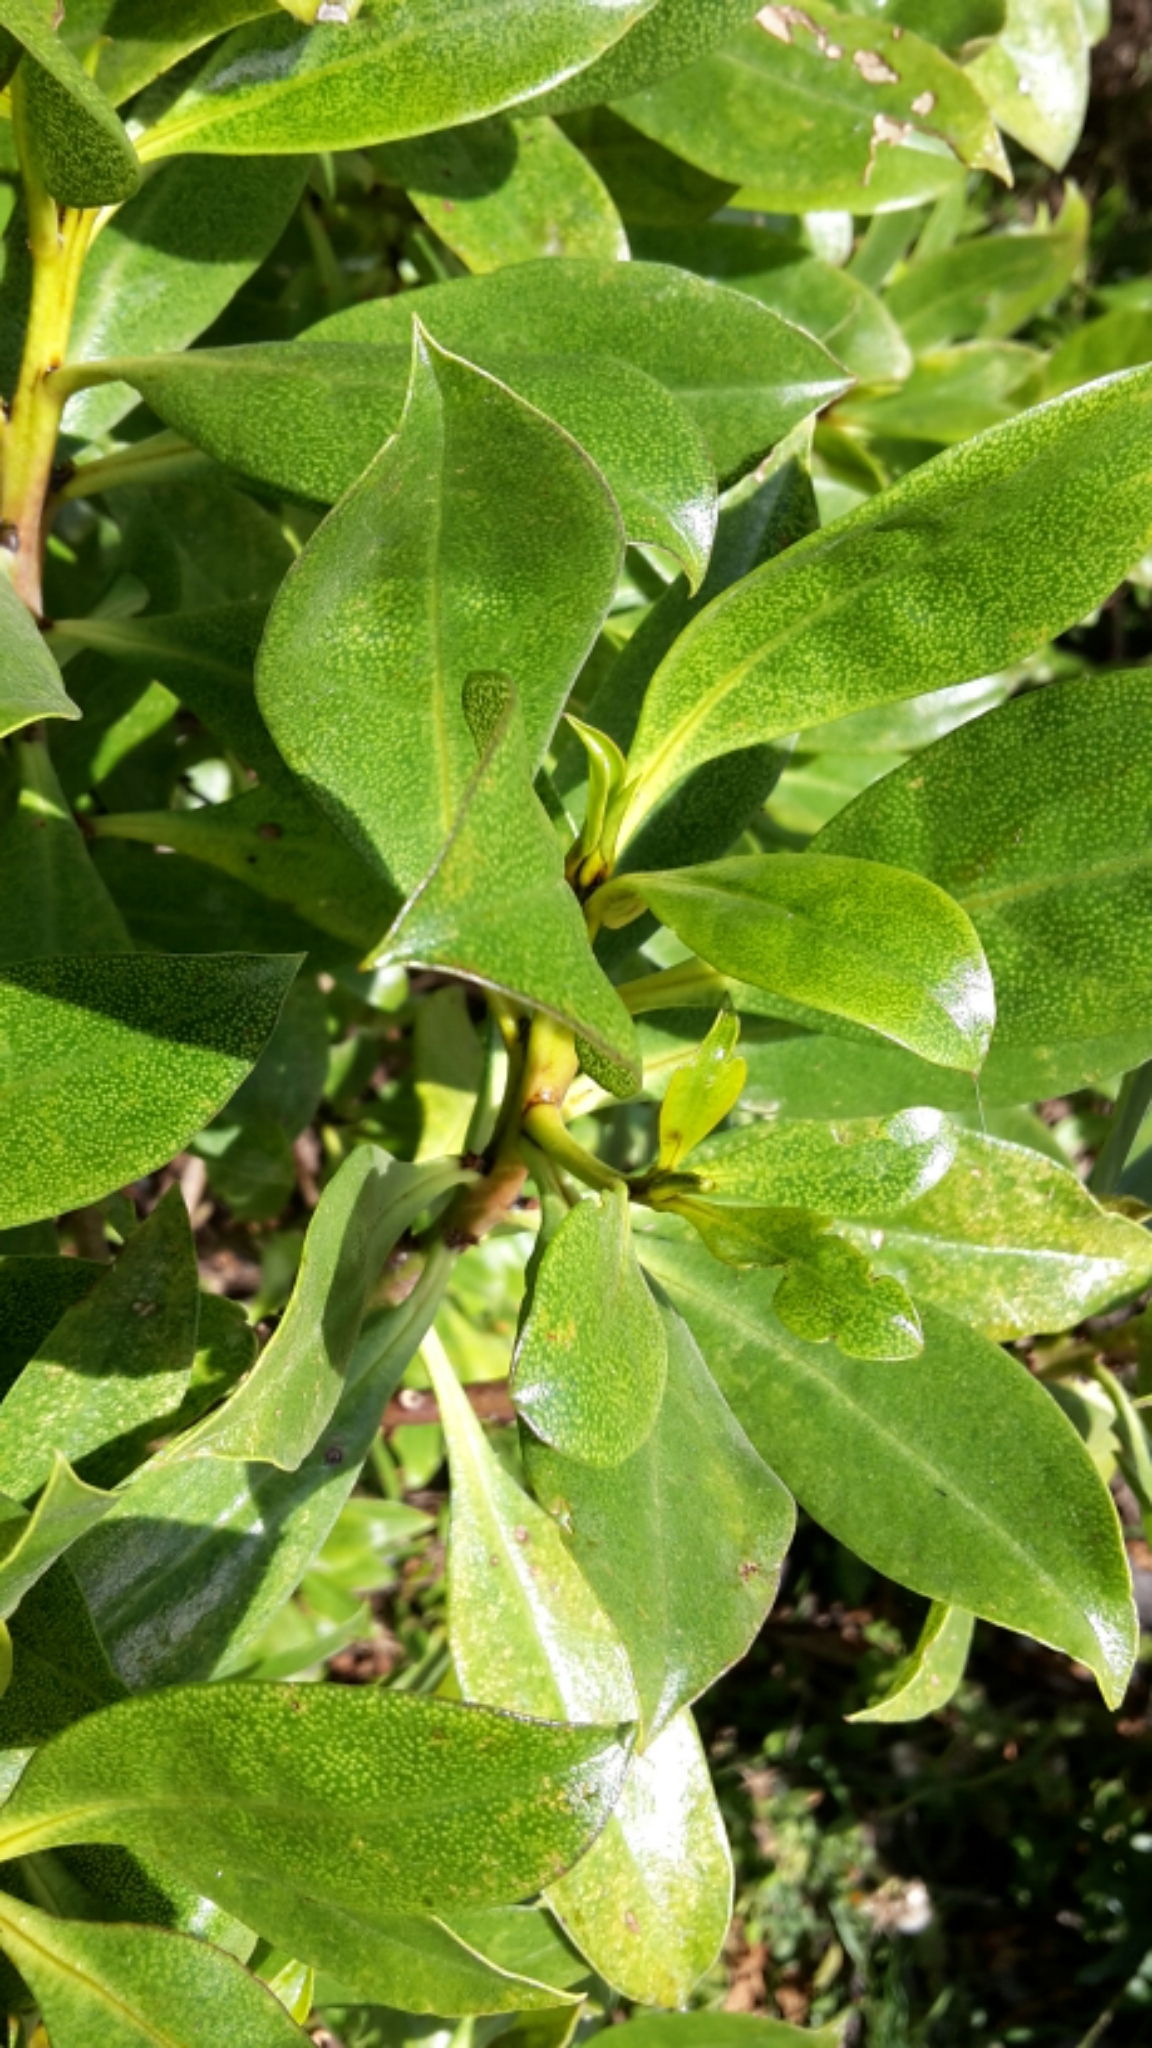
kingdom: Plantae
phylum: Tracheophyta
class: Magnoliopsida
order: Lamiales
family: Scrophulariaceae
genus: Myoporum
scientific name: Myoporum laetum
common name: Ngaio tree
